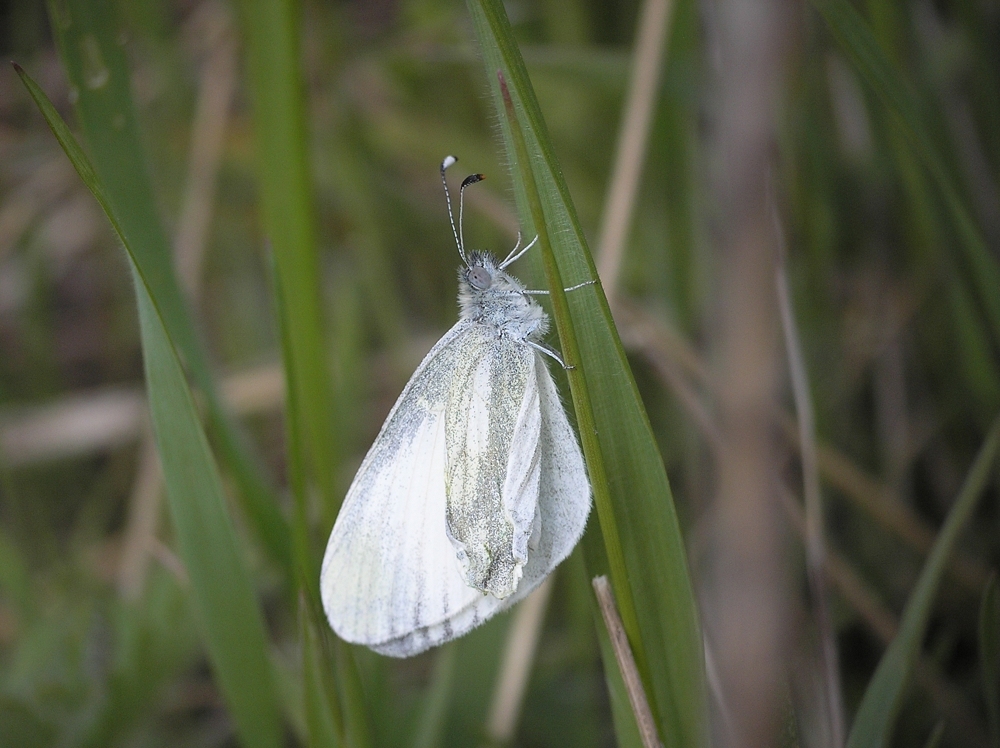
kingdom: Animalia
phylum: Arthropoda
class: Insecta
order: Lepidoptera
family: Pieridae
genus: Leptidea
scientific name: Leptidea
